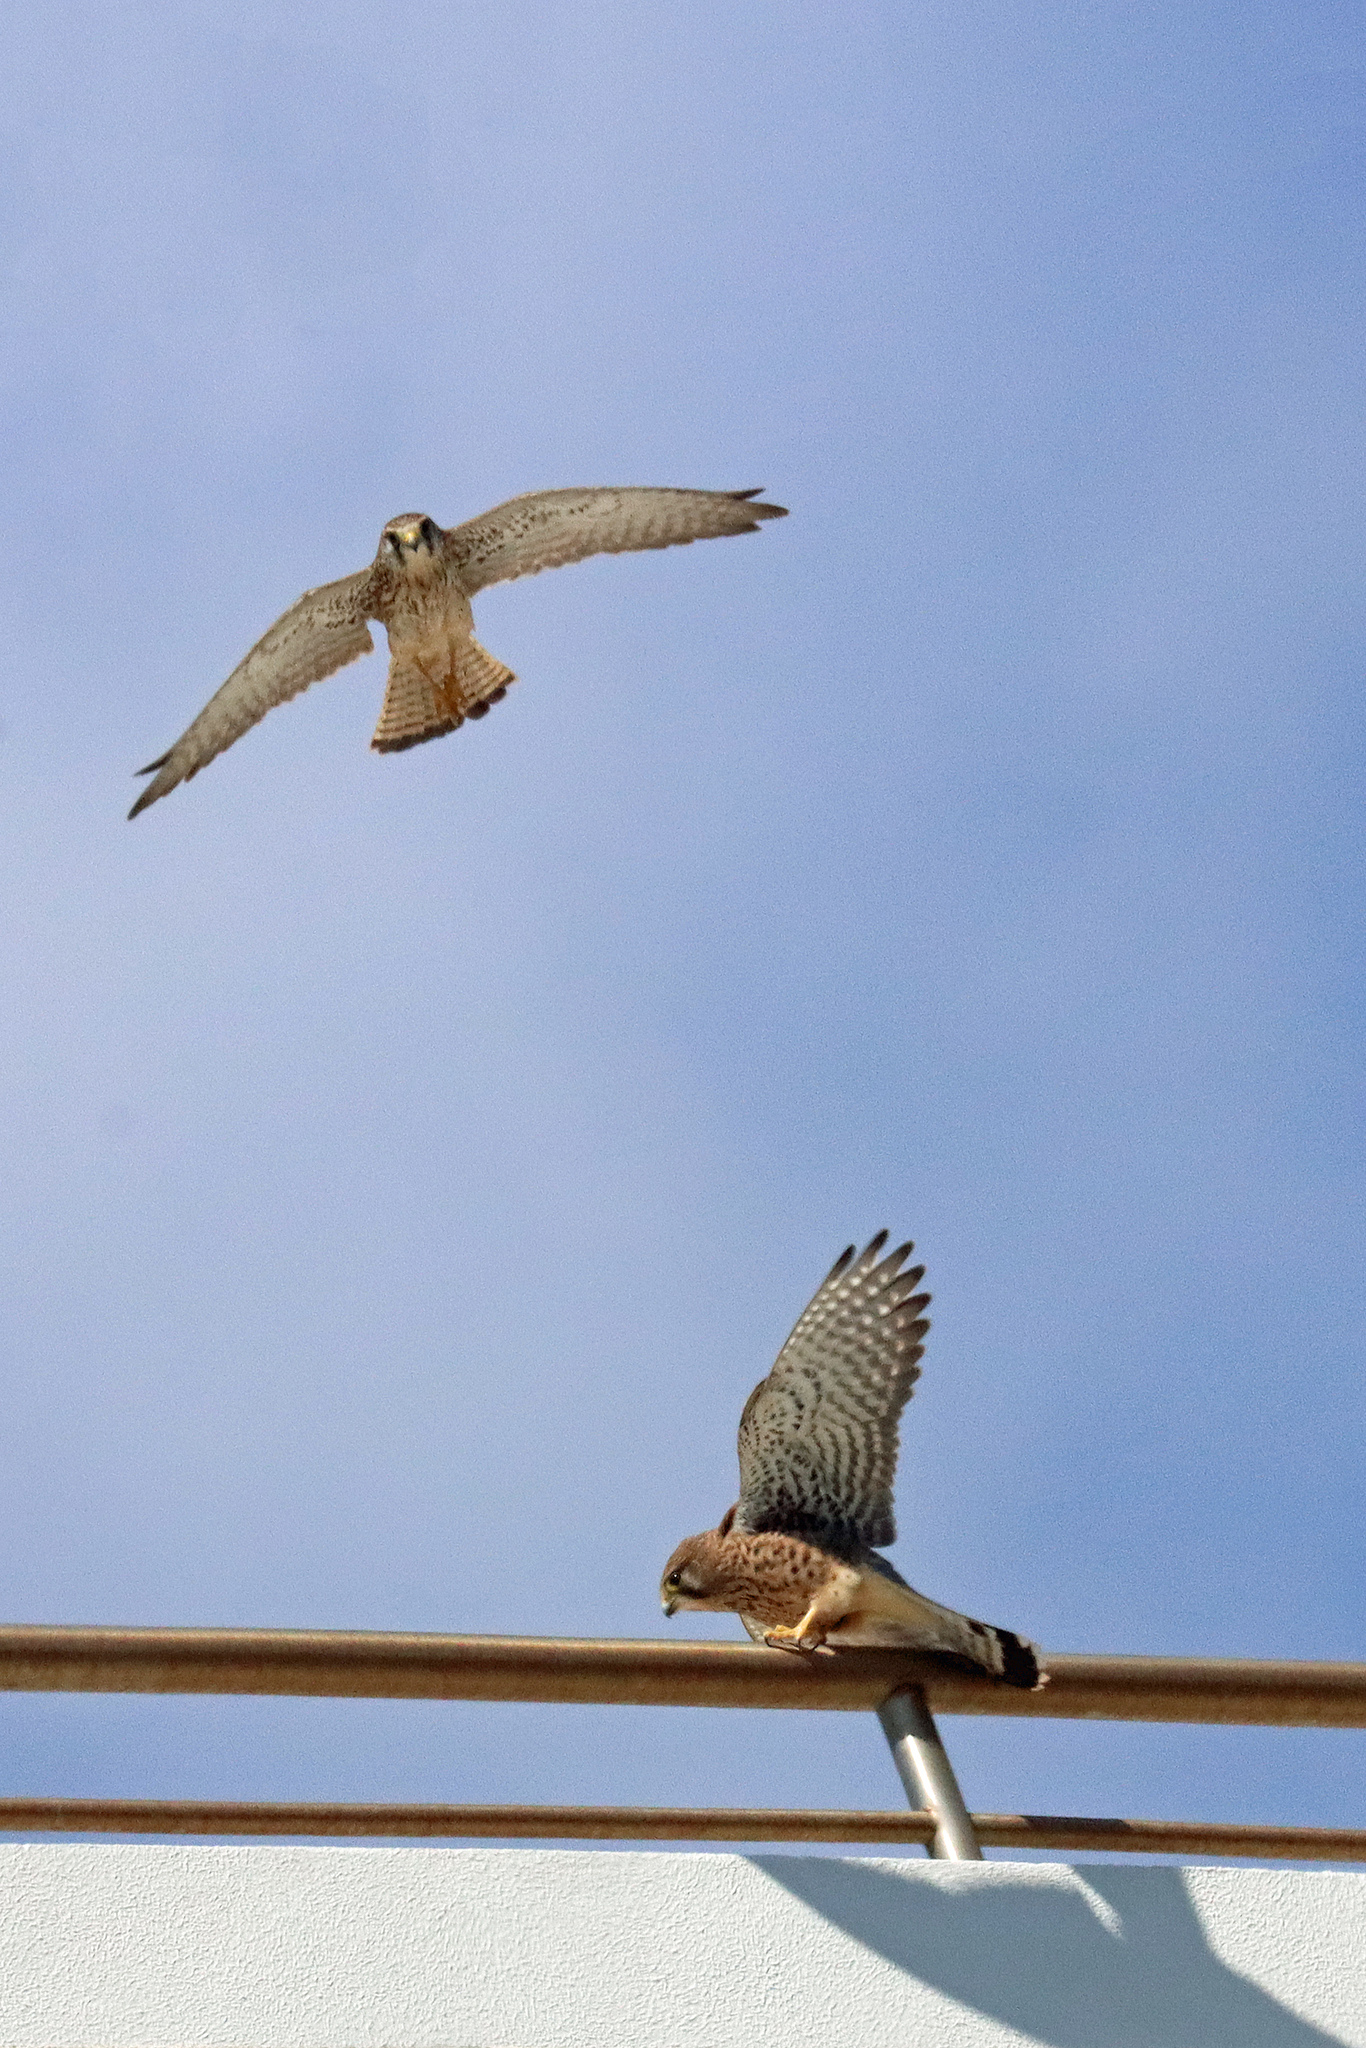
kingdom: Animalia
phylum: Chordata
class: Aves
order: Falconiformes
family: Falconidae
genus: Falco
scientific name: Falco tinnunculus
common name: Common kestrel
